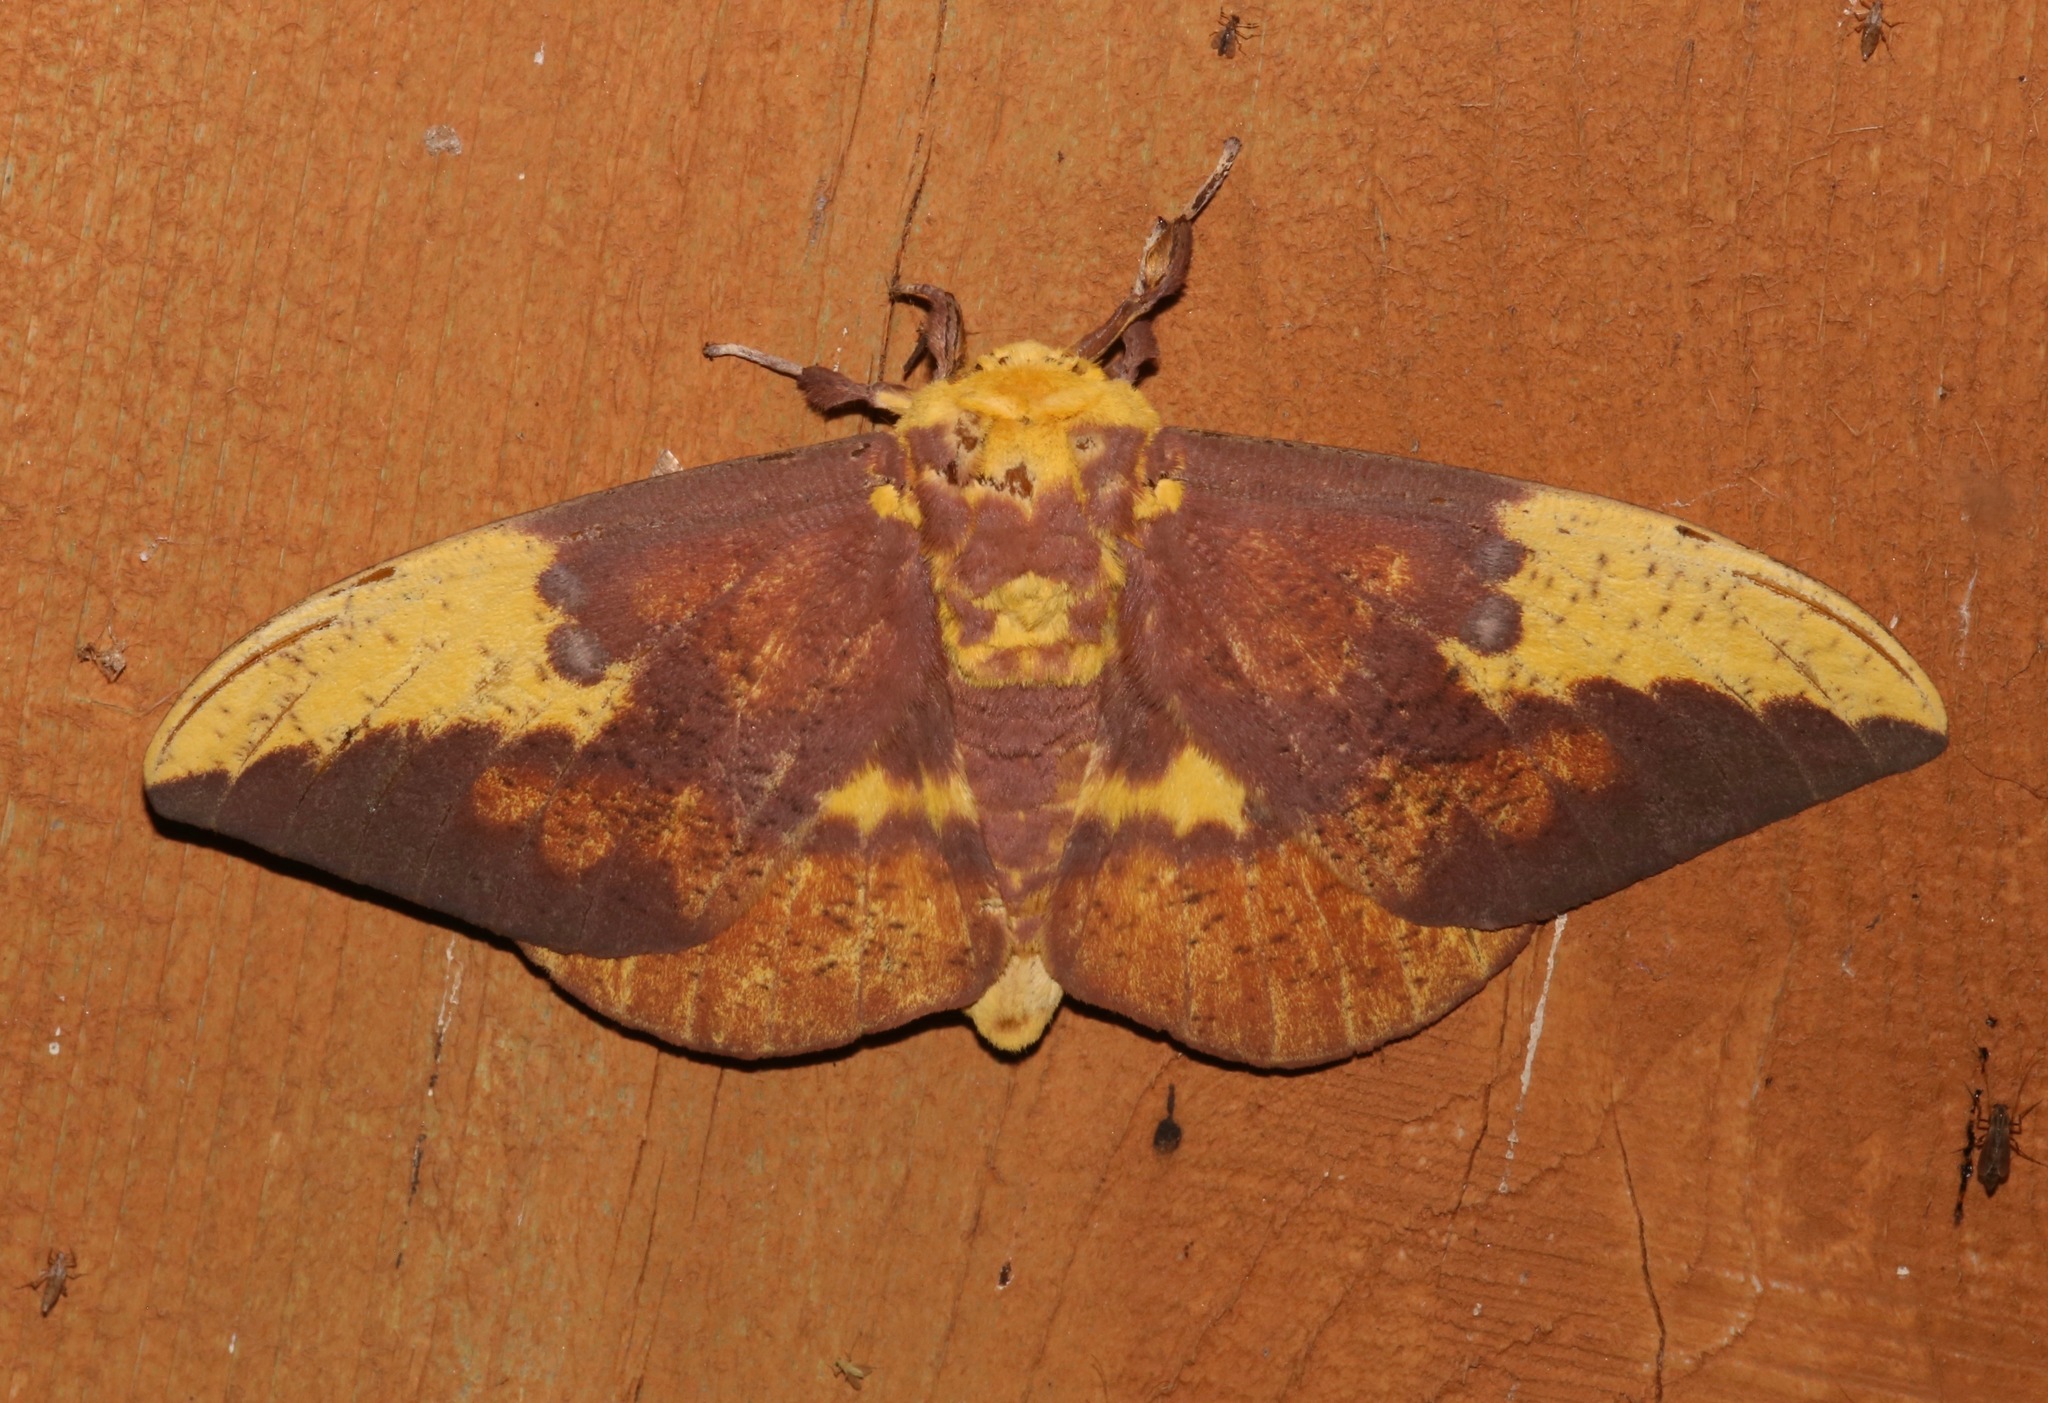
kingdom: Animalia
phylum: Arthropoda
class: Insecta
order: Lepidoptera
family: Saturniidae
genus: Eacles
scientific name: Eacles imperialis
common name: Imperial moth
